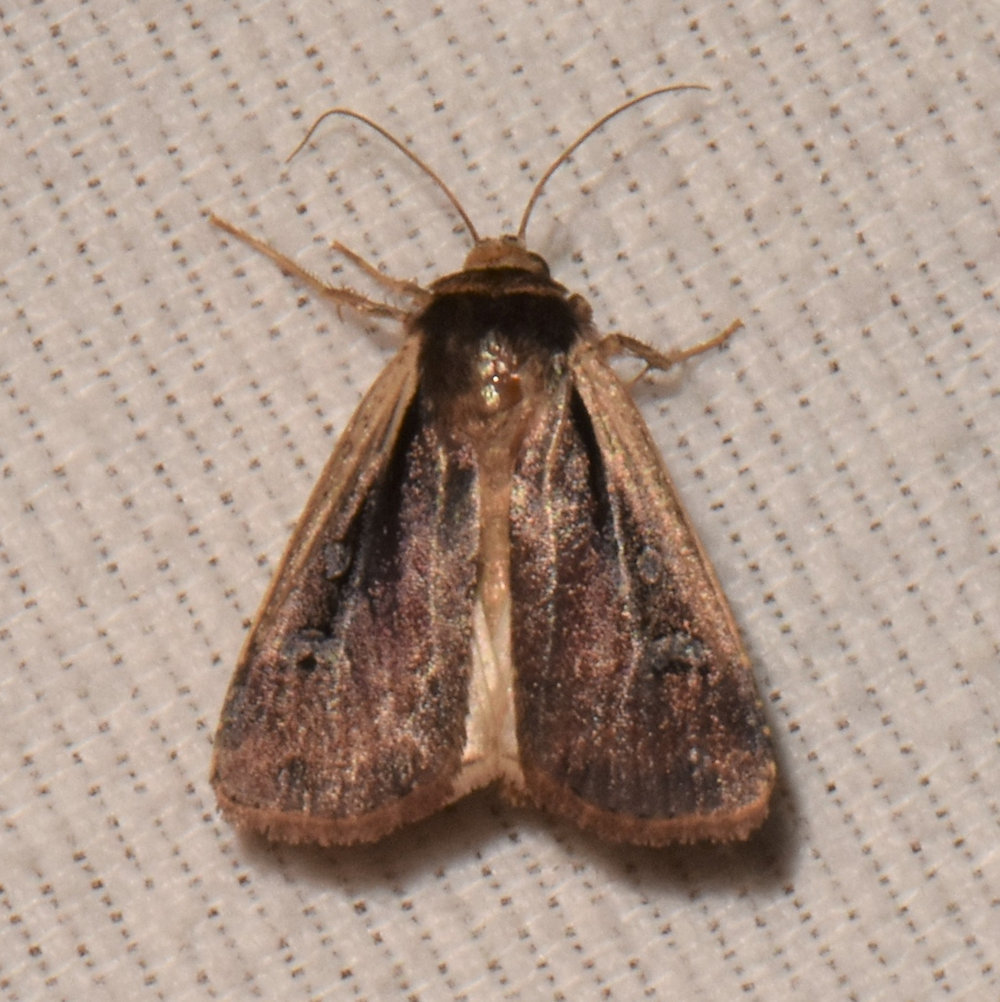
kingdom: Animalia
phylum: Arthropoda
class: Insecta
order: Lepidoptera
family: Noctuidae
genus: Ochropleura
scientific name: Ochropleura implecta
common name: Flame-shouldered dart
